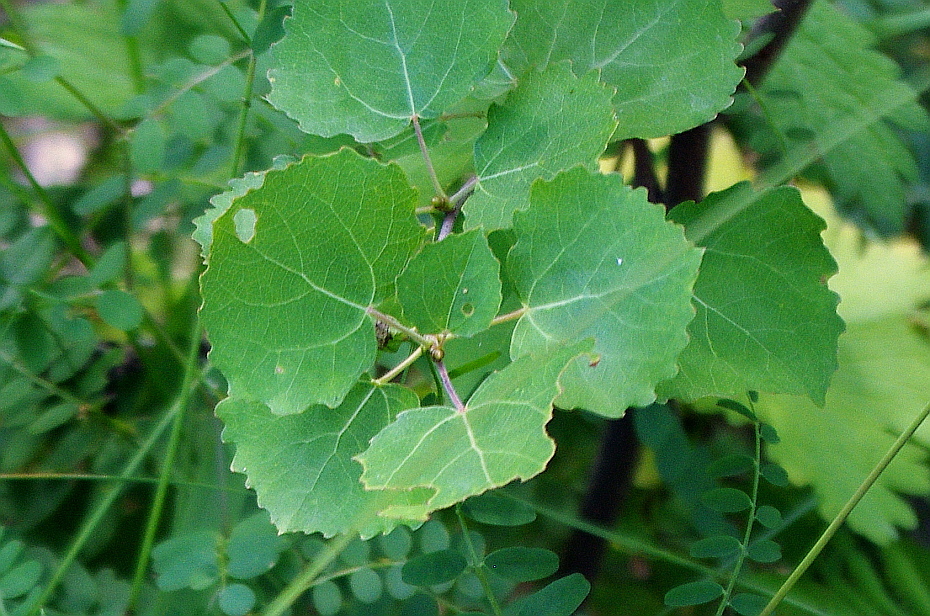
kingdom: Plantae
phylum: Tracheophyta
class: Magnoliopsida
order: Malpighiales
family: Salicaceae
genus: Populus
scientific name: Populus tremula
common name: European aspen
